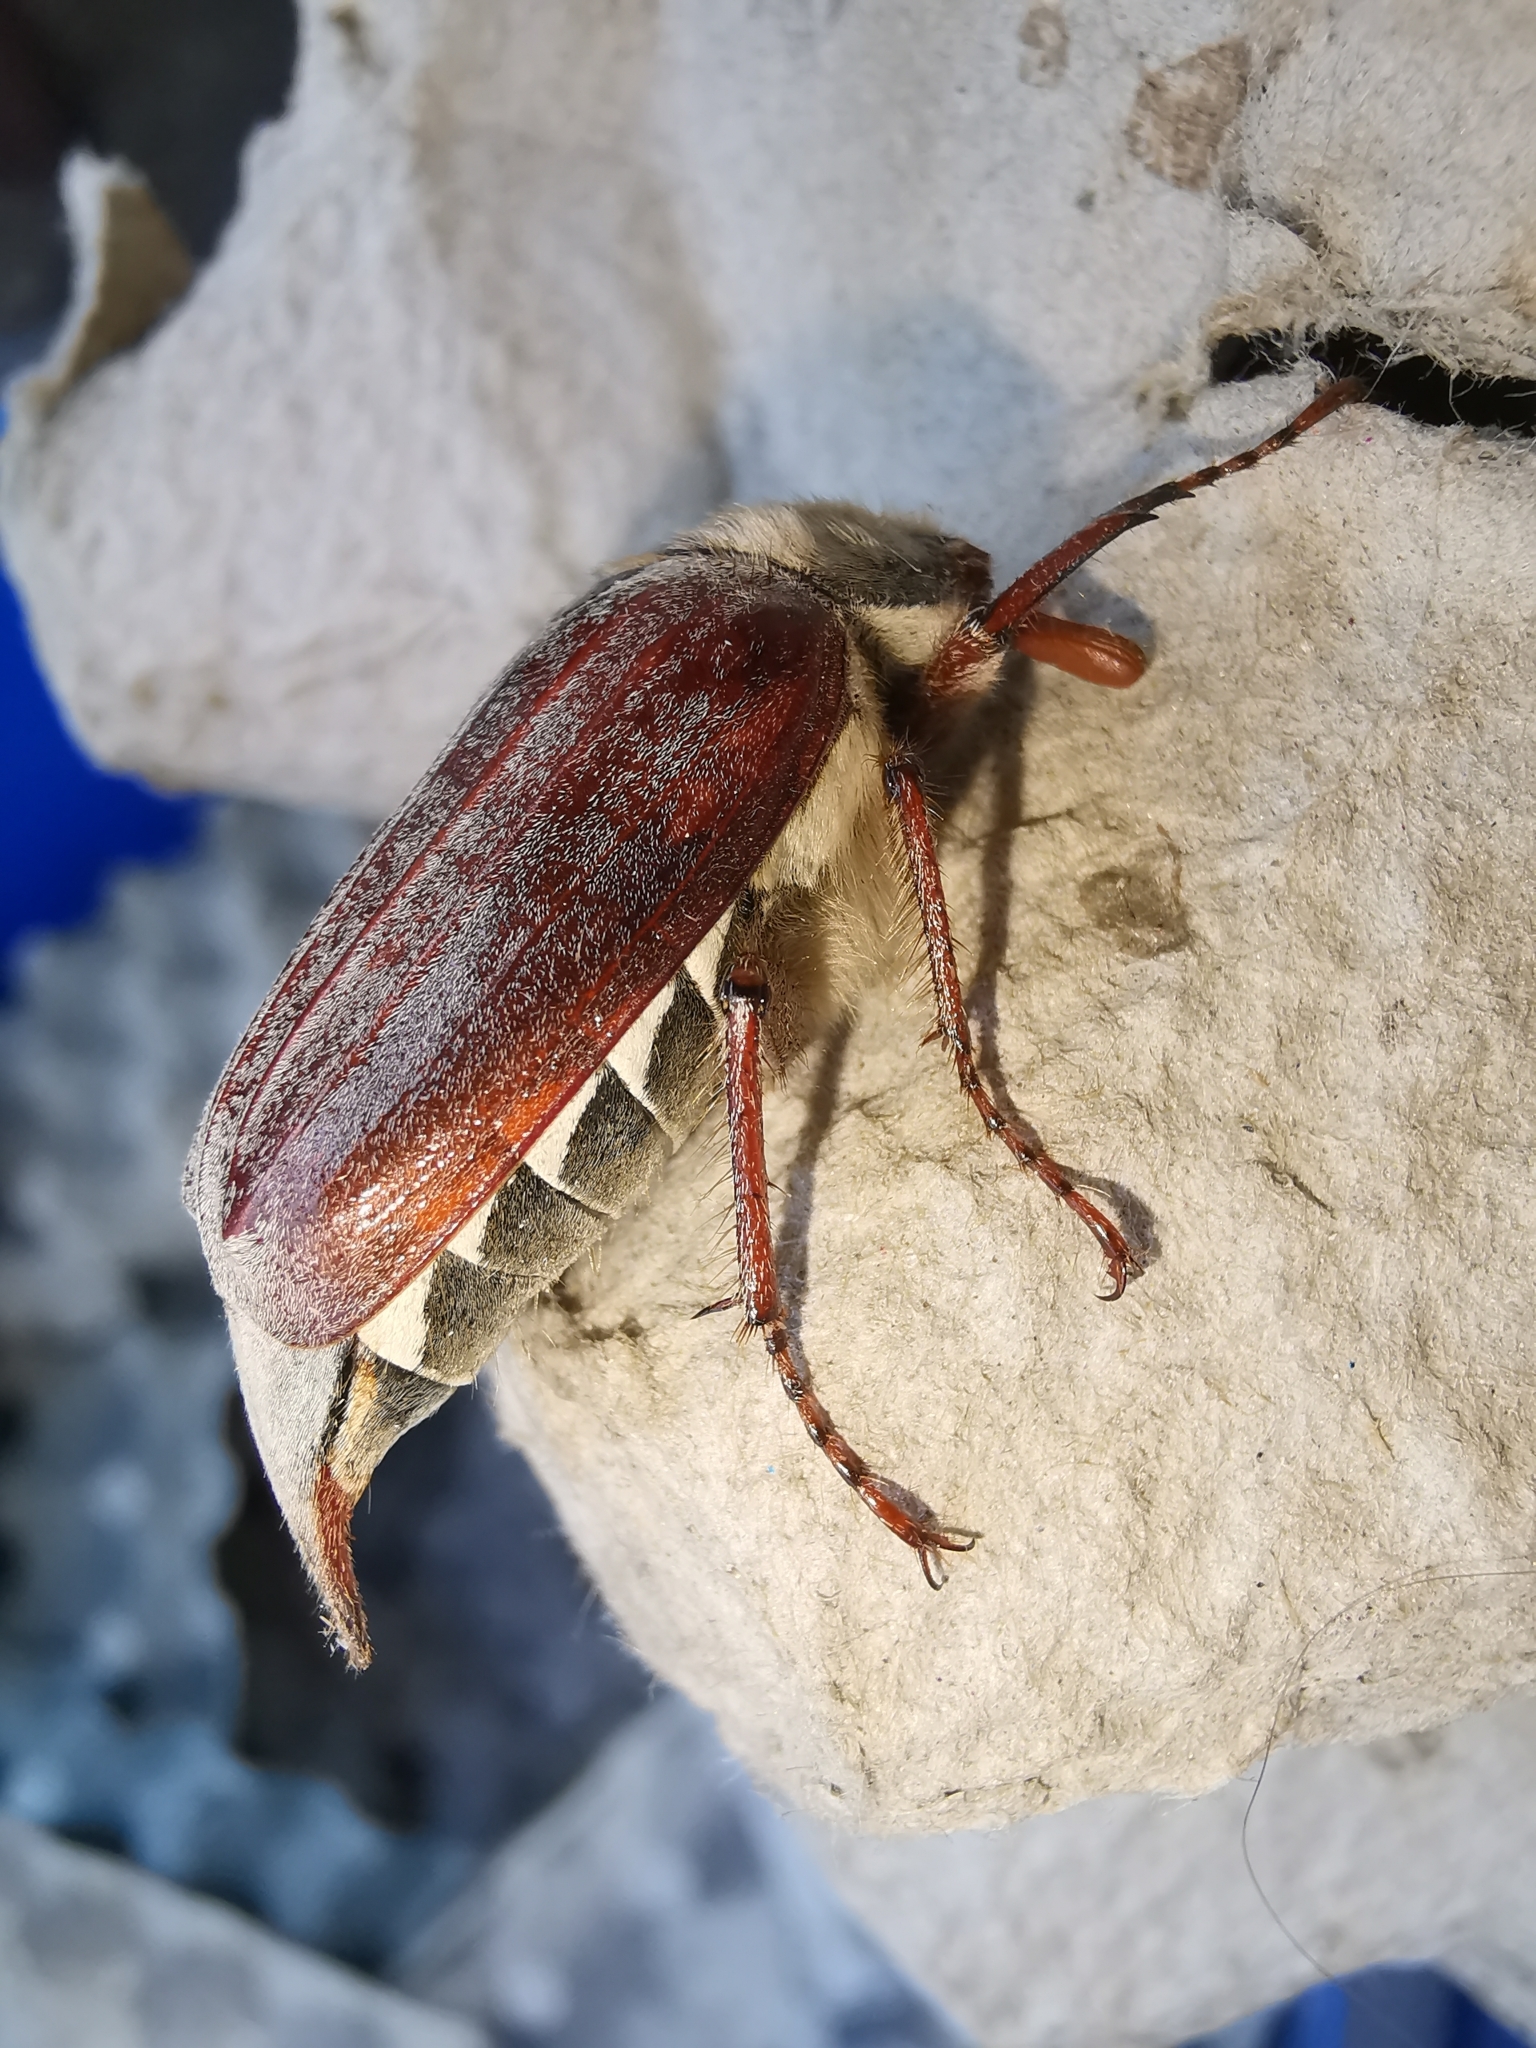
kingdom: Animalia
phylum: Arthropoda
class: Insecta
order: Coleoptera
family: Scarabaeidae
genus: Melolontha
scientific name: Melolontha melolontha
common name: Cockchafer maybeetle
